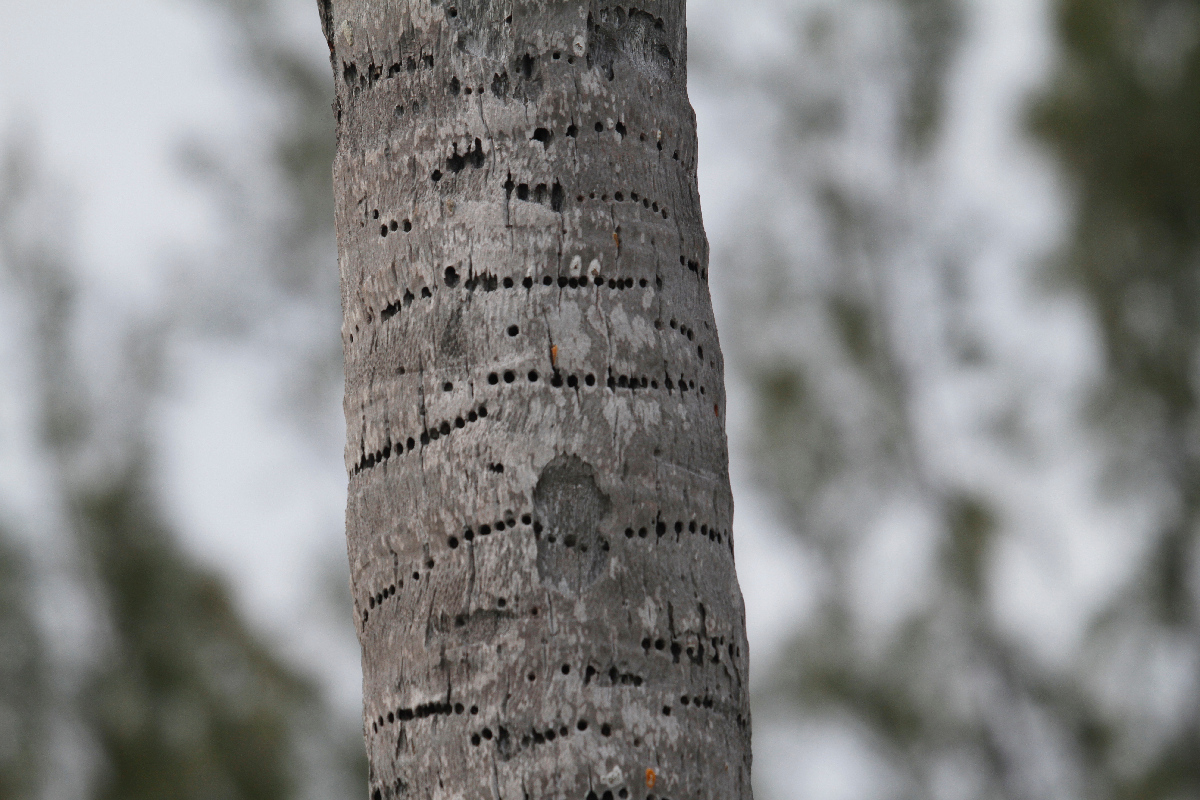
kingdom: Animalia
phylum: Chordata
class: Aves
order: Piciformes
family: Picidae
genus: Sphyrapicus
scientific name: Sphyrapicus varius
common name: Yellow-bellied sapsucker
